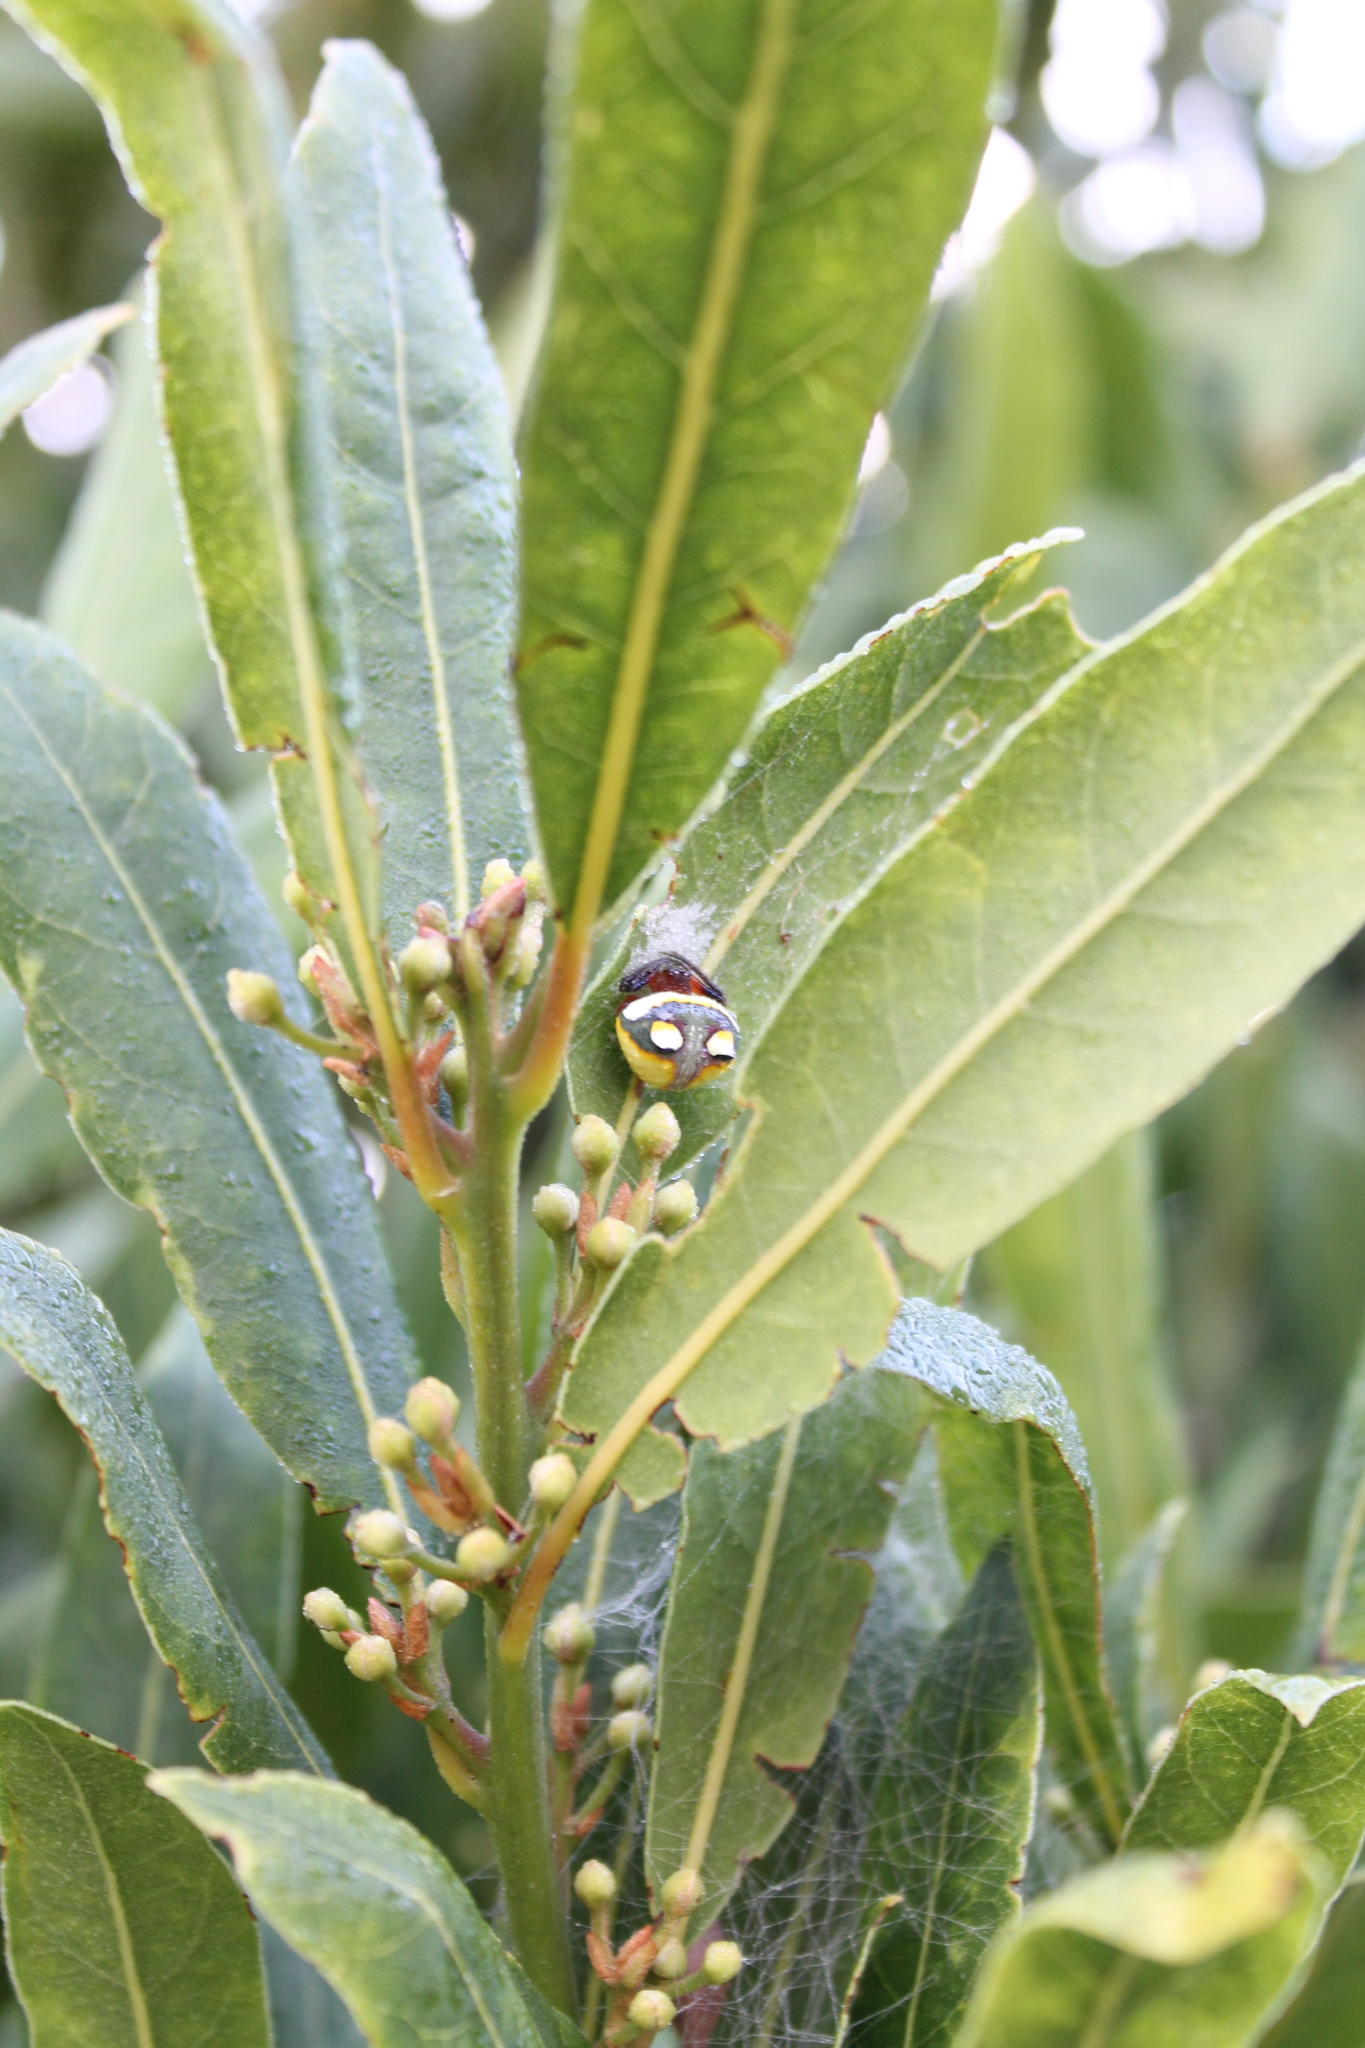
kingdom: Animalia
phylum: Arthropoda
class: Arachnida
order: Araneae
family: Araneidae
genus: Poecilopachys
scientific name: Poecilopachys australasia
